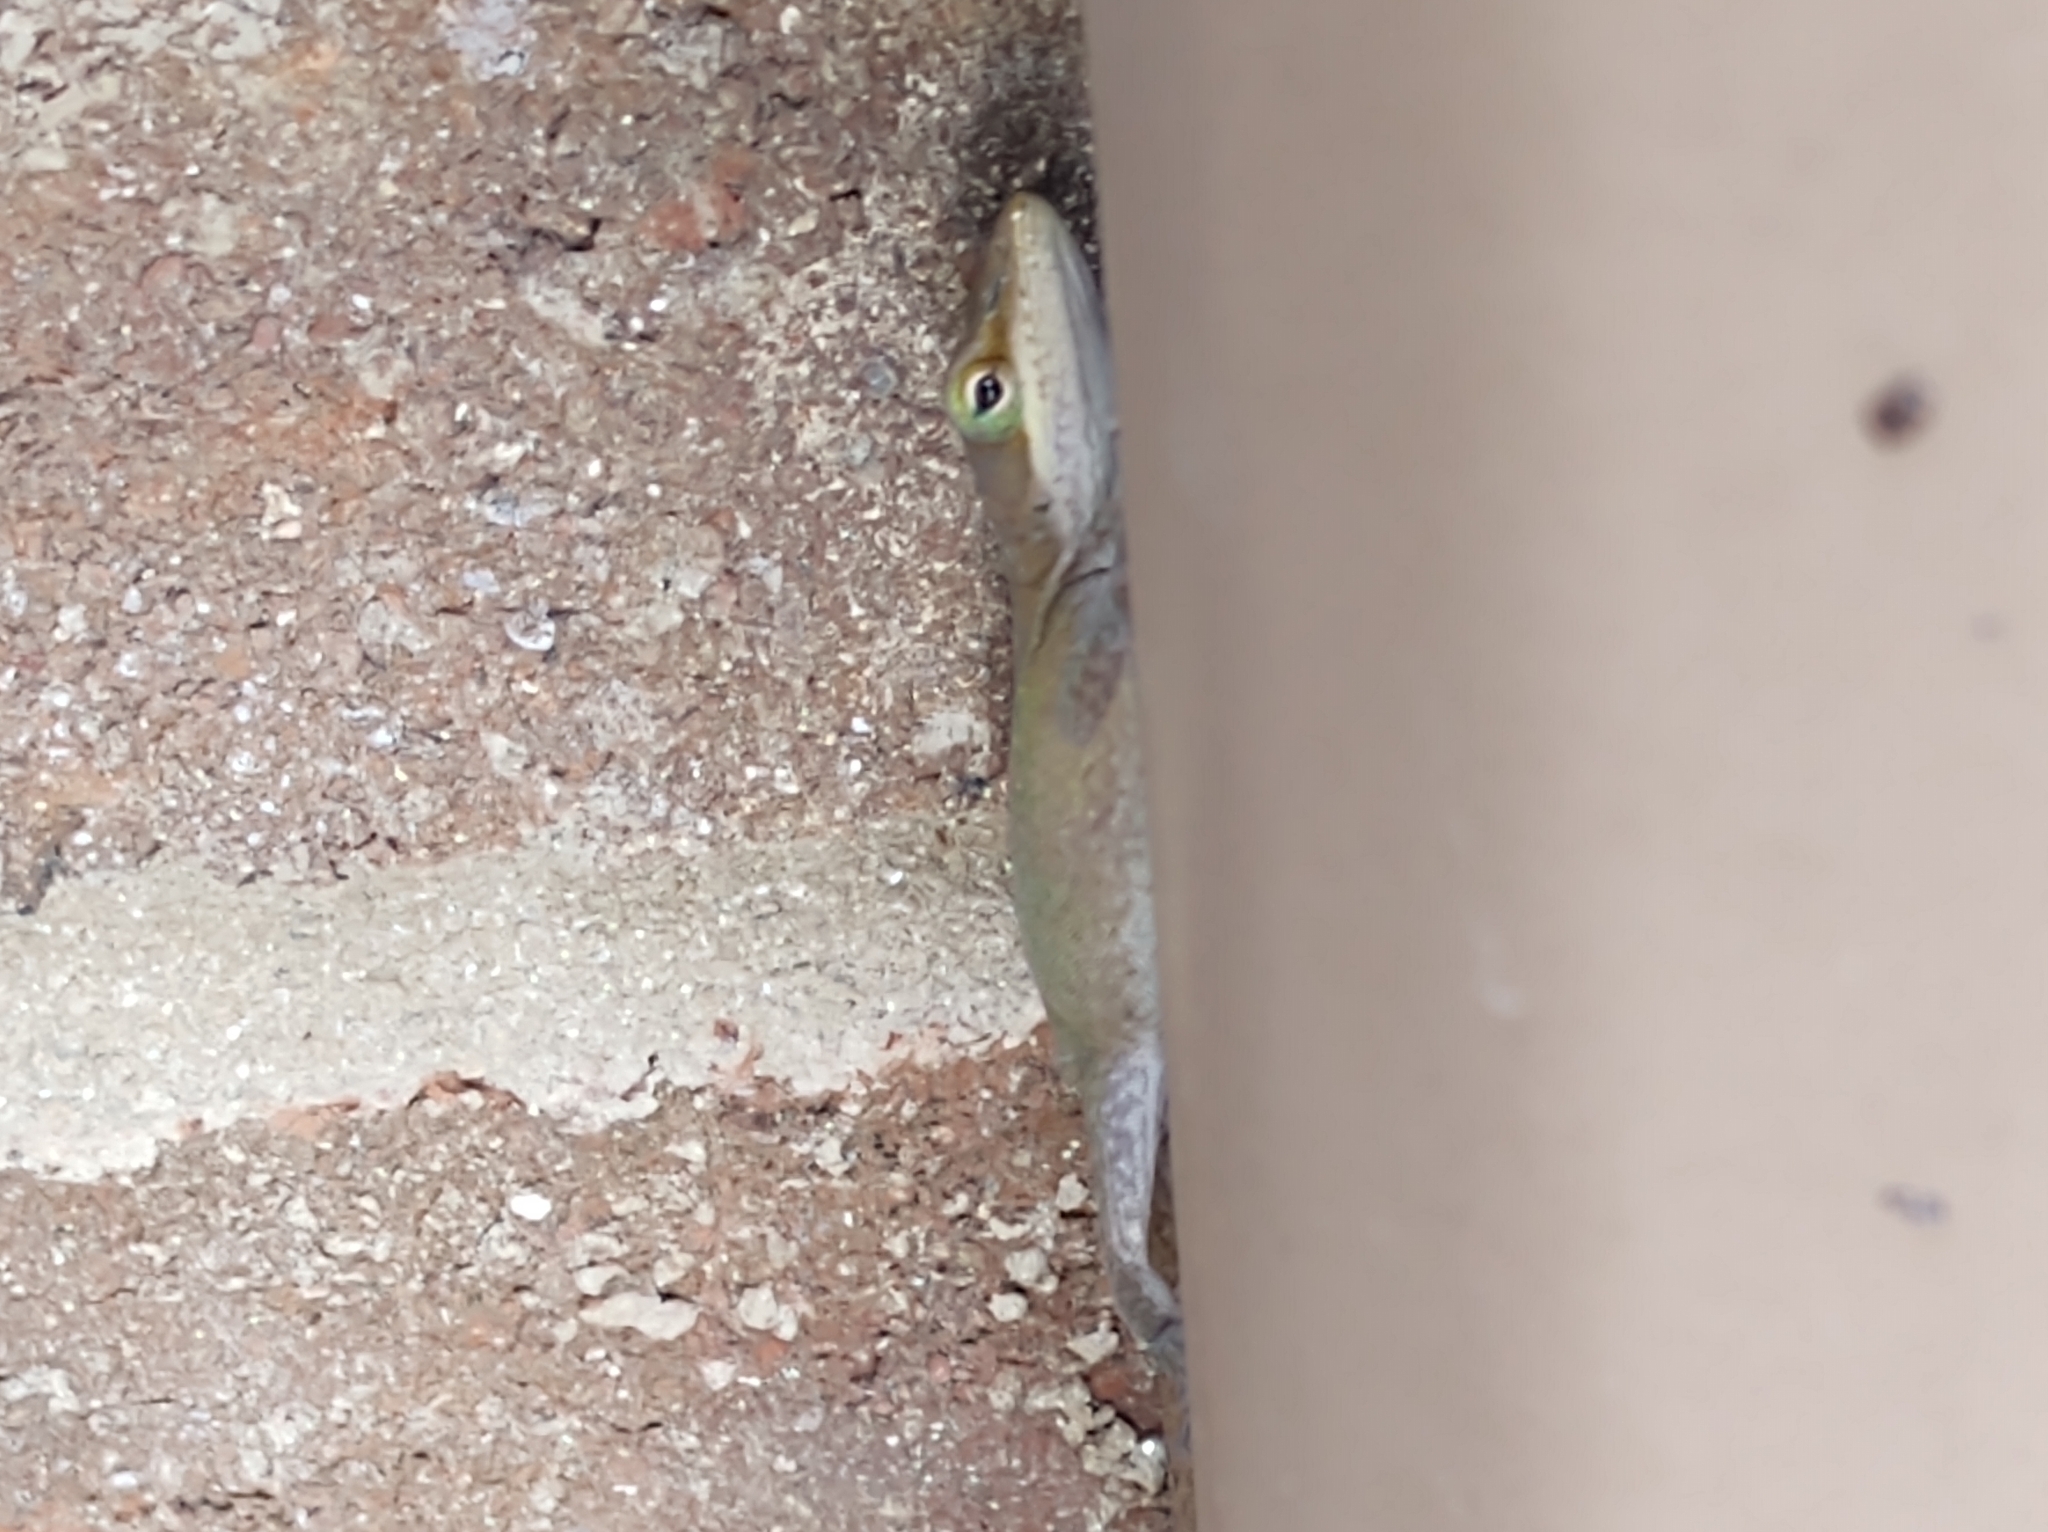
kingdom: Animalia
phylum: Chordata
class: Squamata
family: Dactyloidae
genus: Anolis
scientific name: Anolis carolinensis
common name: Green anole
